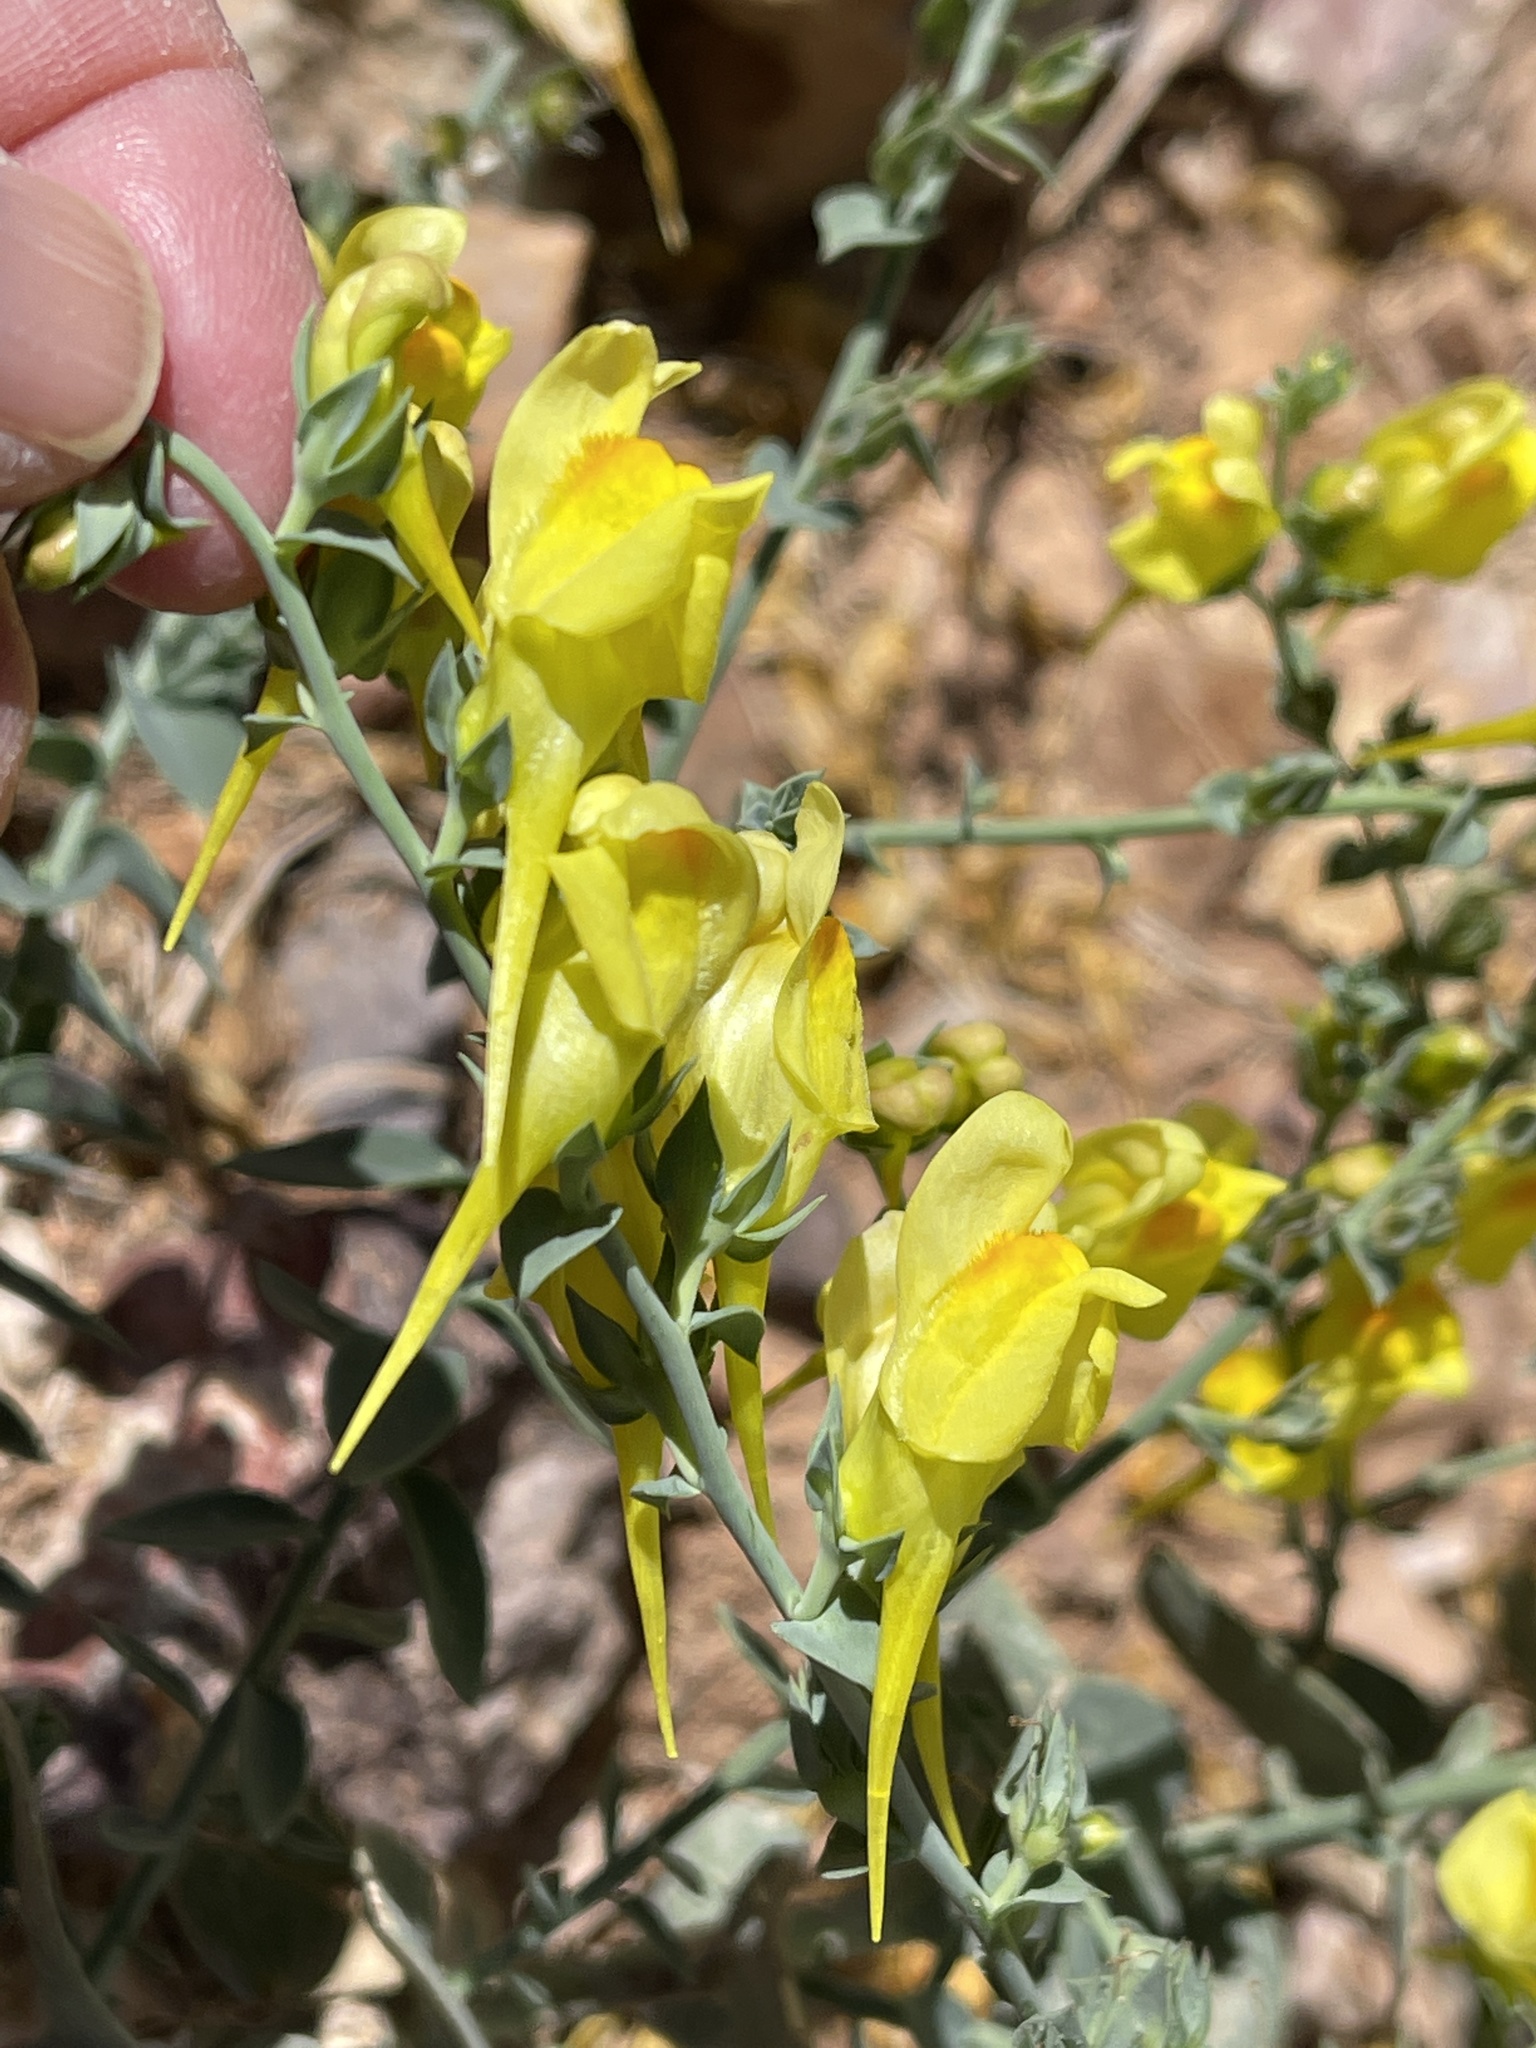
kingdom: Plantae
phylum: Tracheophyta
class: Magnoliopsida
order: Lamiales
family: Plantaginaceae
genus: Linaria
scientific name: Linaria vulgaris
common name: Butter and eggs
